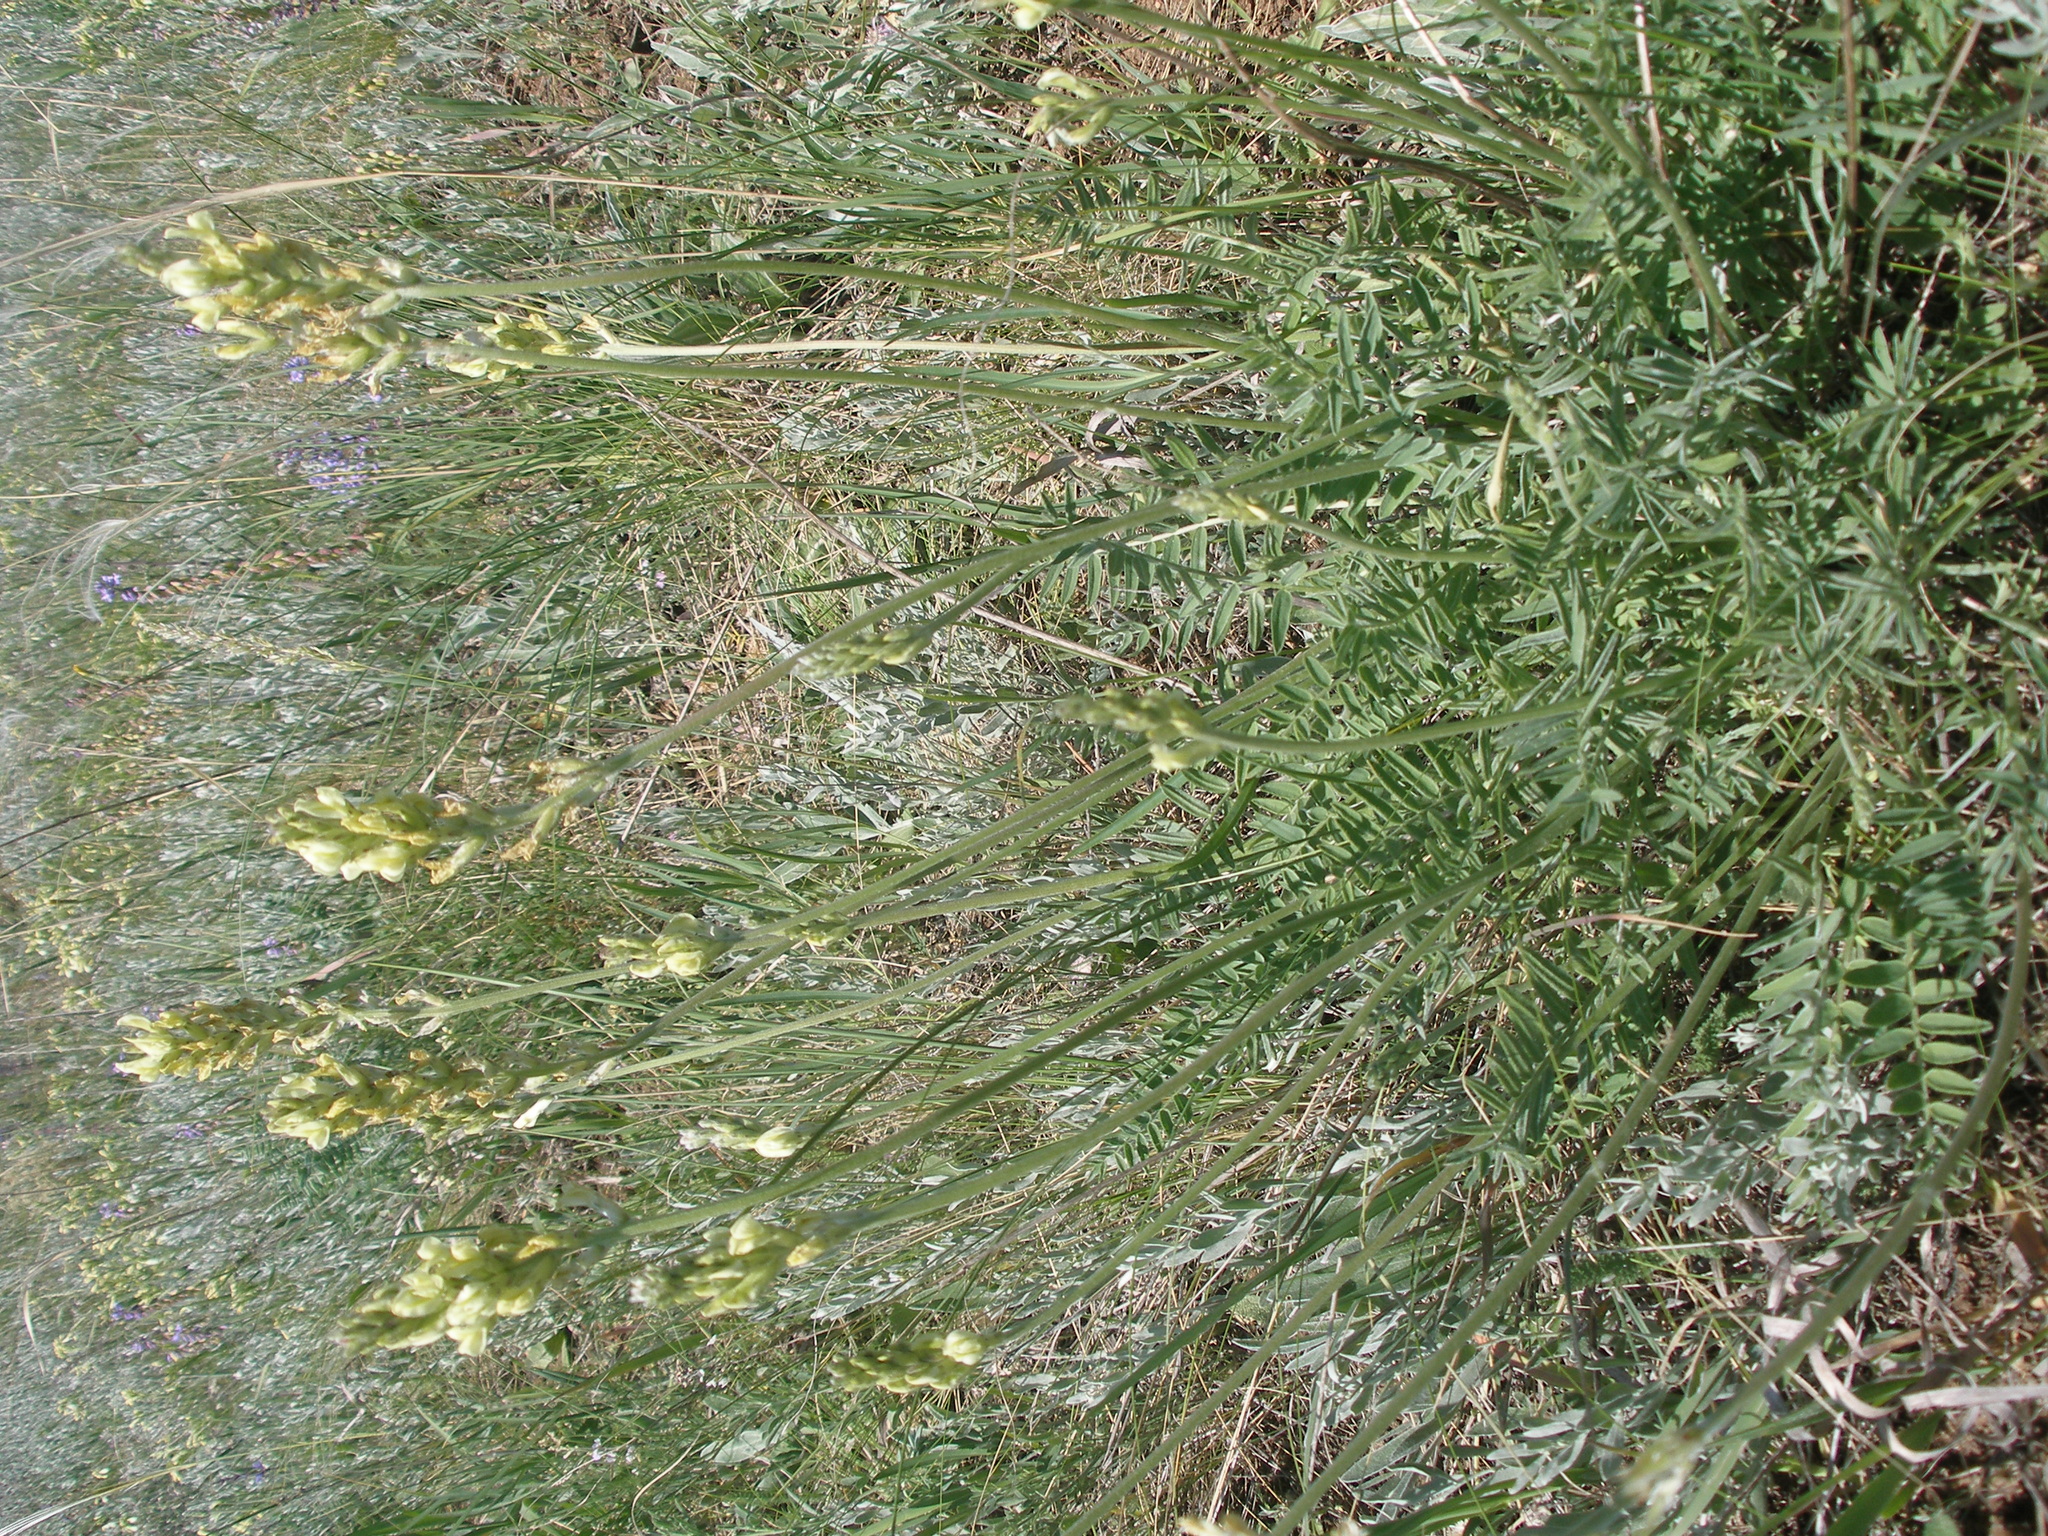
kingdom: Plantae
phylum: Tracheophyta
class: Magnoliopsida
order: Fabales
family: Fabaceae
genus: Oxytropis
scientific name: Oxytropis hippolyti
